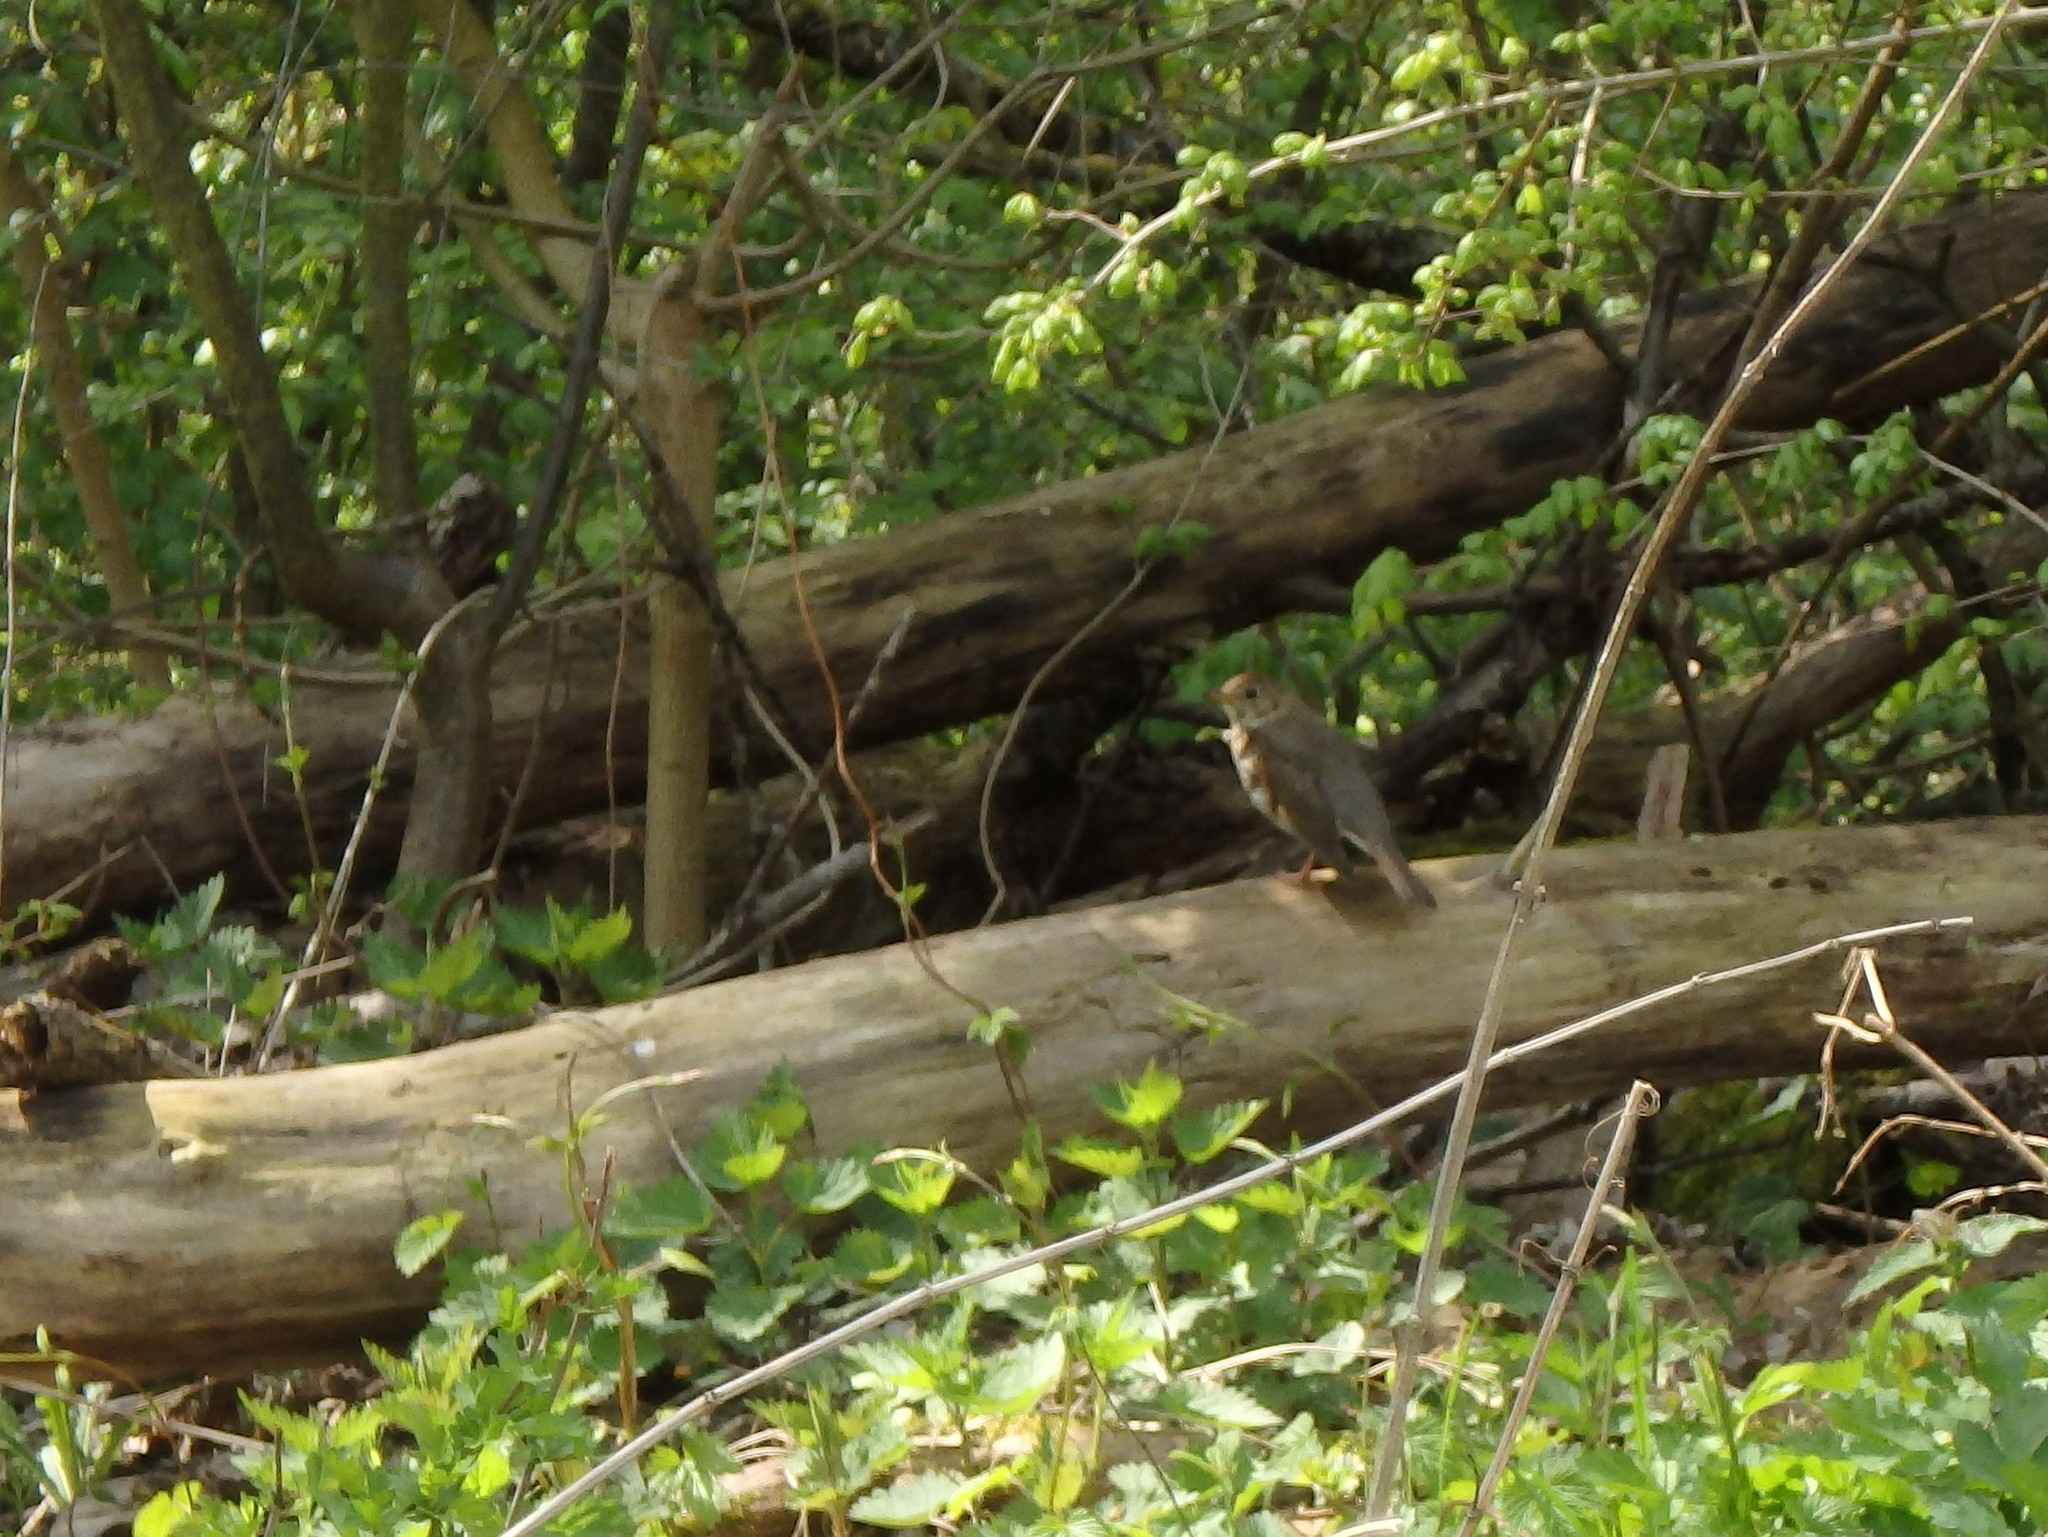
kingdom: Animalia
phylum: Chordata
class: Aves
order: Passeriformes
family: Turdidae
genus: Turdus
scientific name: Turdus philomelos
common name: Song thrush
